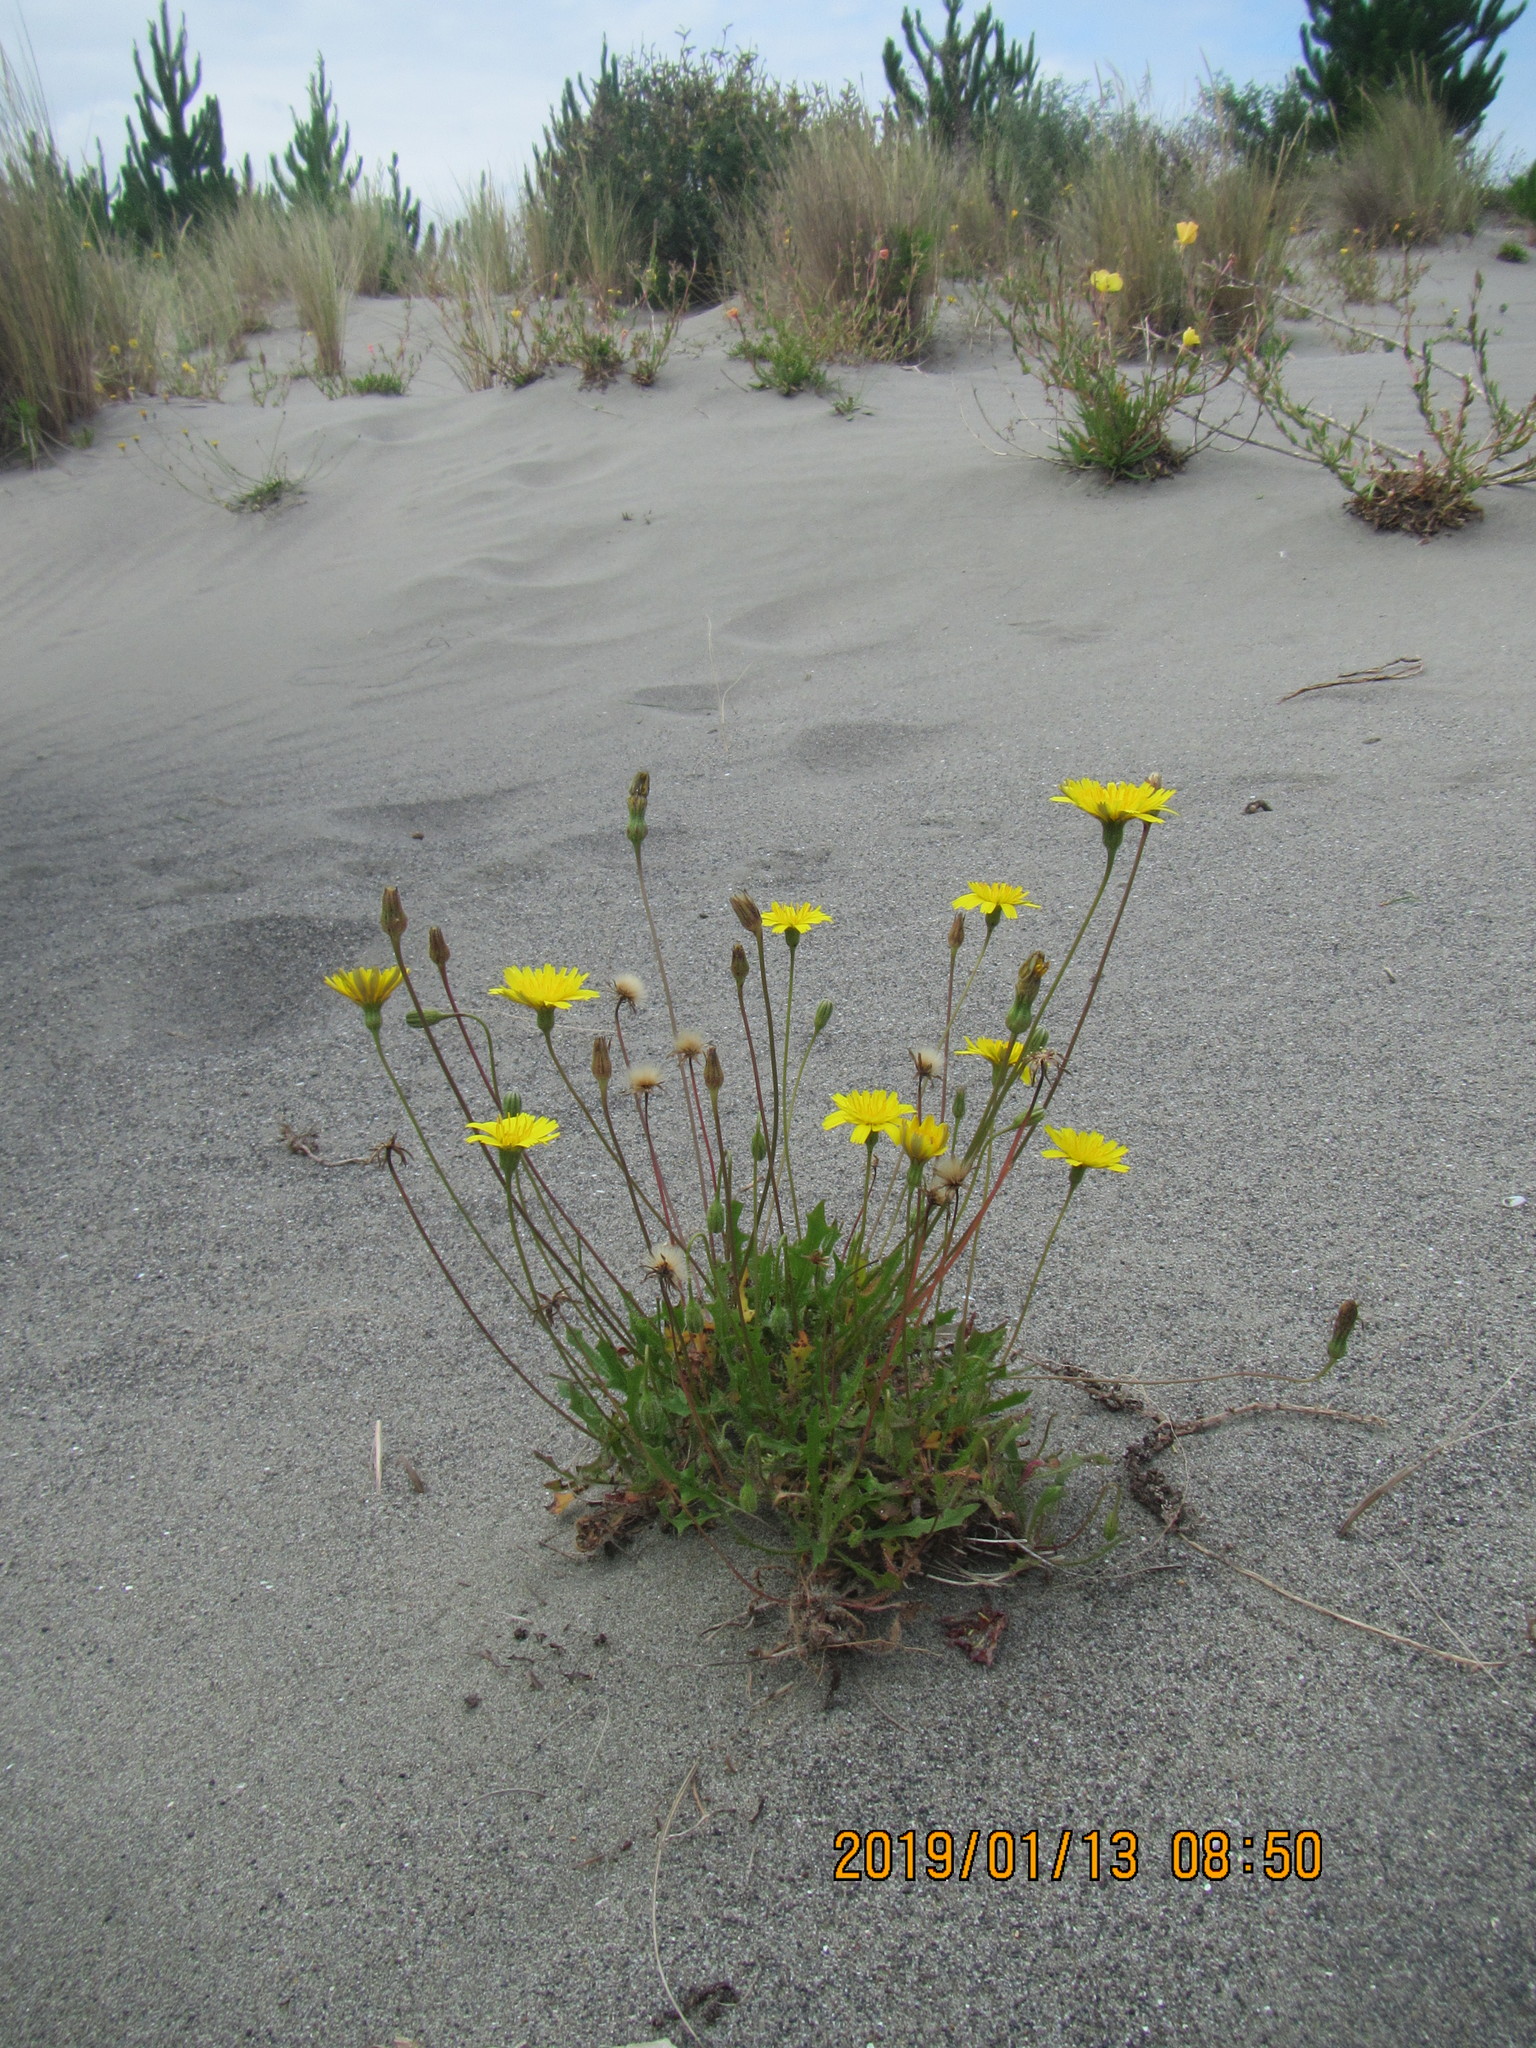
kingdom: Plantae
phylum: Tracheophyta
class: Magnoliopsida
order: Asterales
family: Asteraceae
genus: Hypochaeris
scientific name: Hypochaeris radicata
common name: Flatweed
